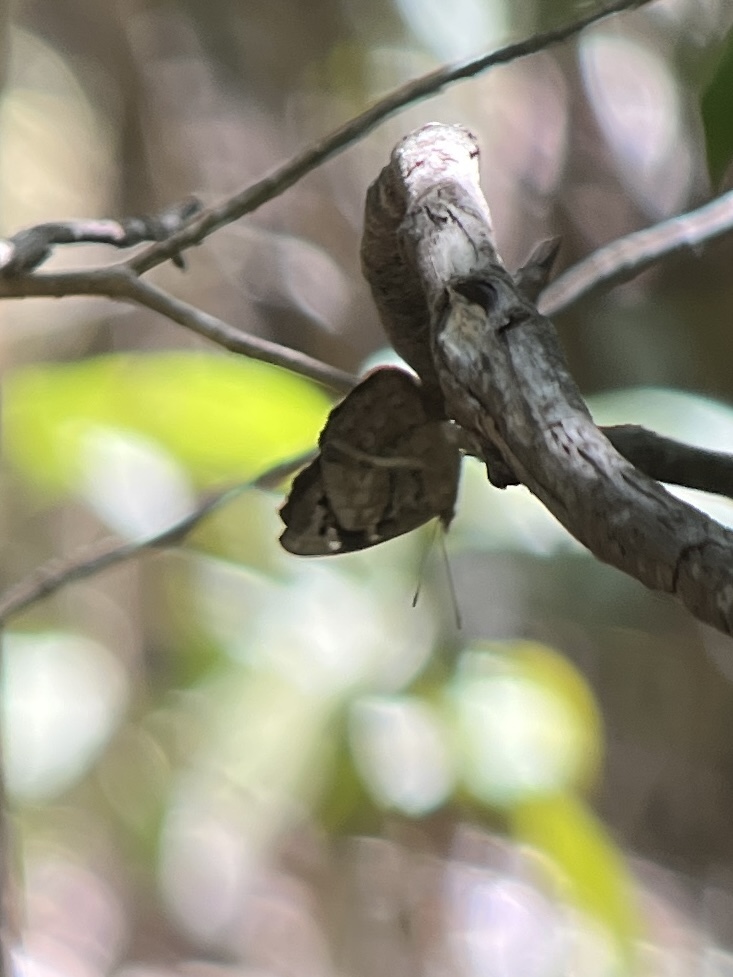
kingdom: Animalia
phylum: Arthropoda
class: Insecta
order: Lepidoptera
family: Nymphalidae
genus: Eunica
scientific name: Eunica tatila
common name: Florida purplewing
